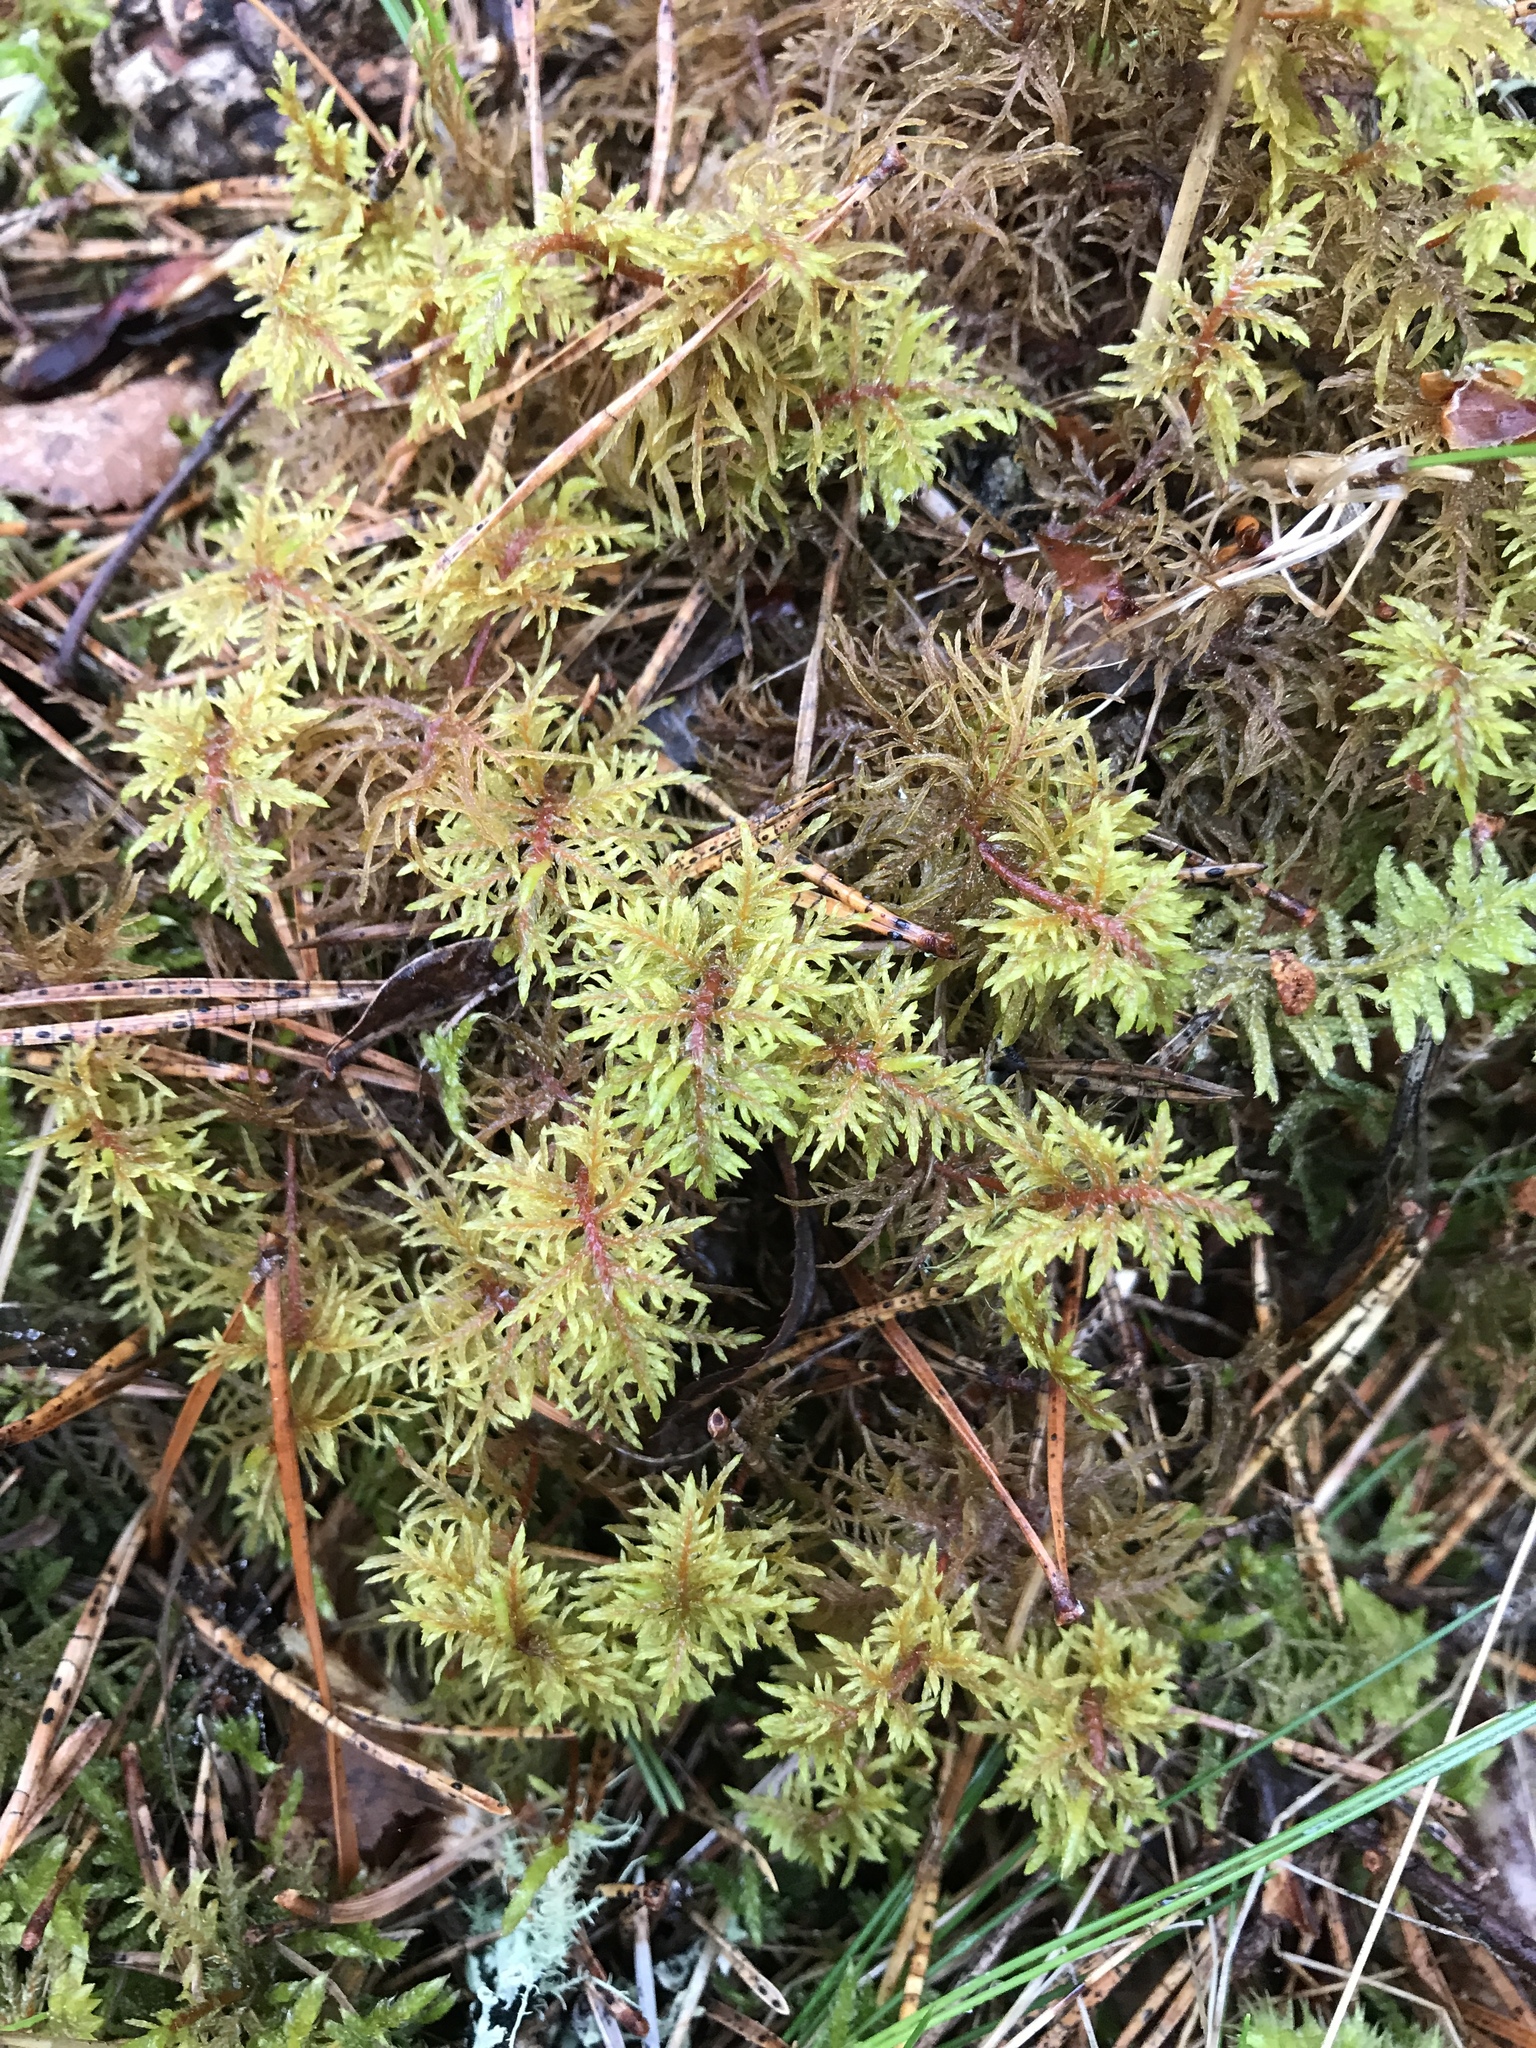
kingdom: Plantae
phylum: Bryophyta
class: Bryopsida
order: Hypnales
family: Hylocomiaceae
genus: Hylocomium
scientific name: Hylocomium splendens
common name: Stairstep moss
